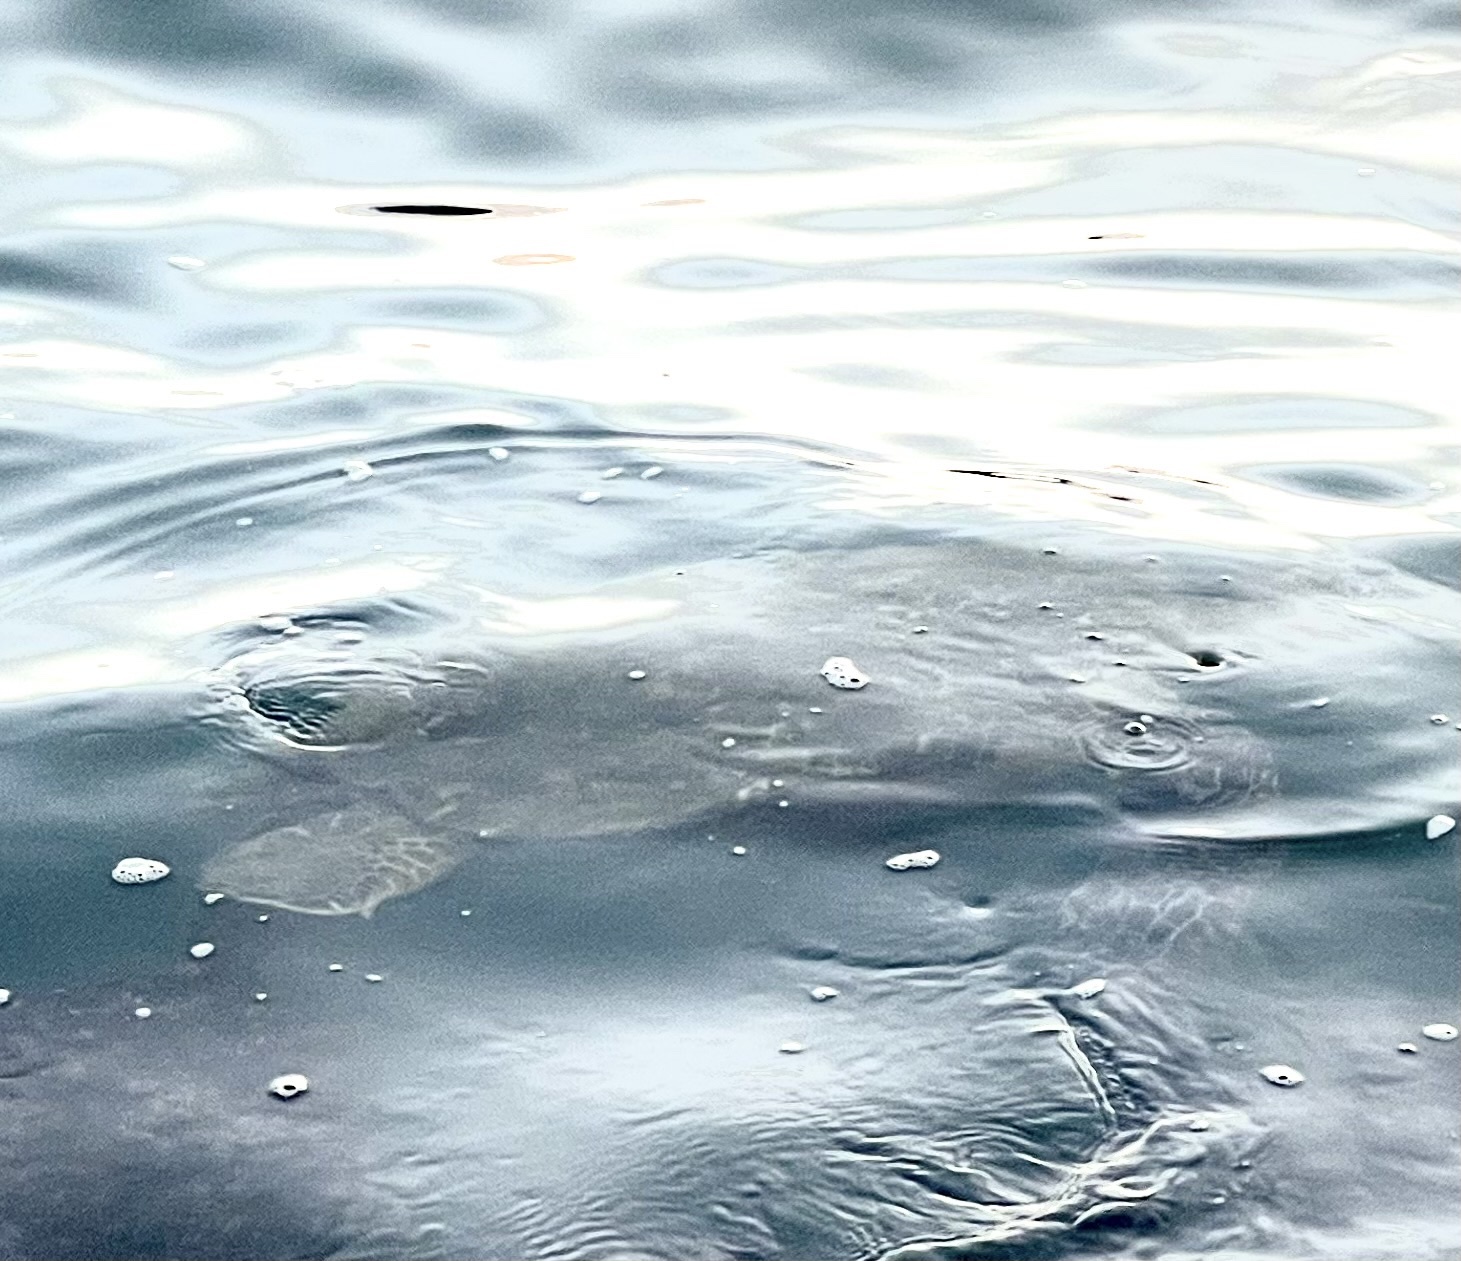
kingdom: Animalia
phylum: Chordata
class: Testudines
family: Cheloniidae
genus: Chelonia
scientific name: Chelonia mydas
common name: Green turtle
